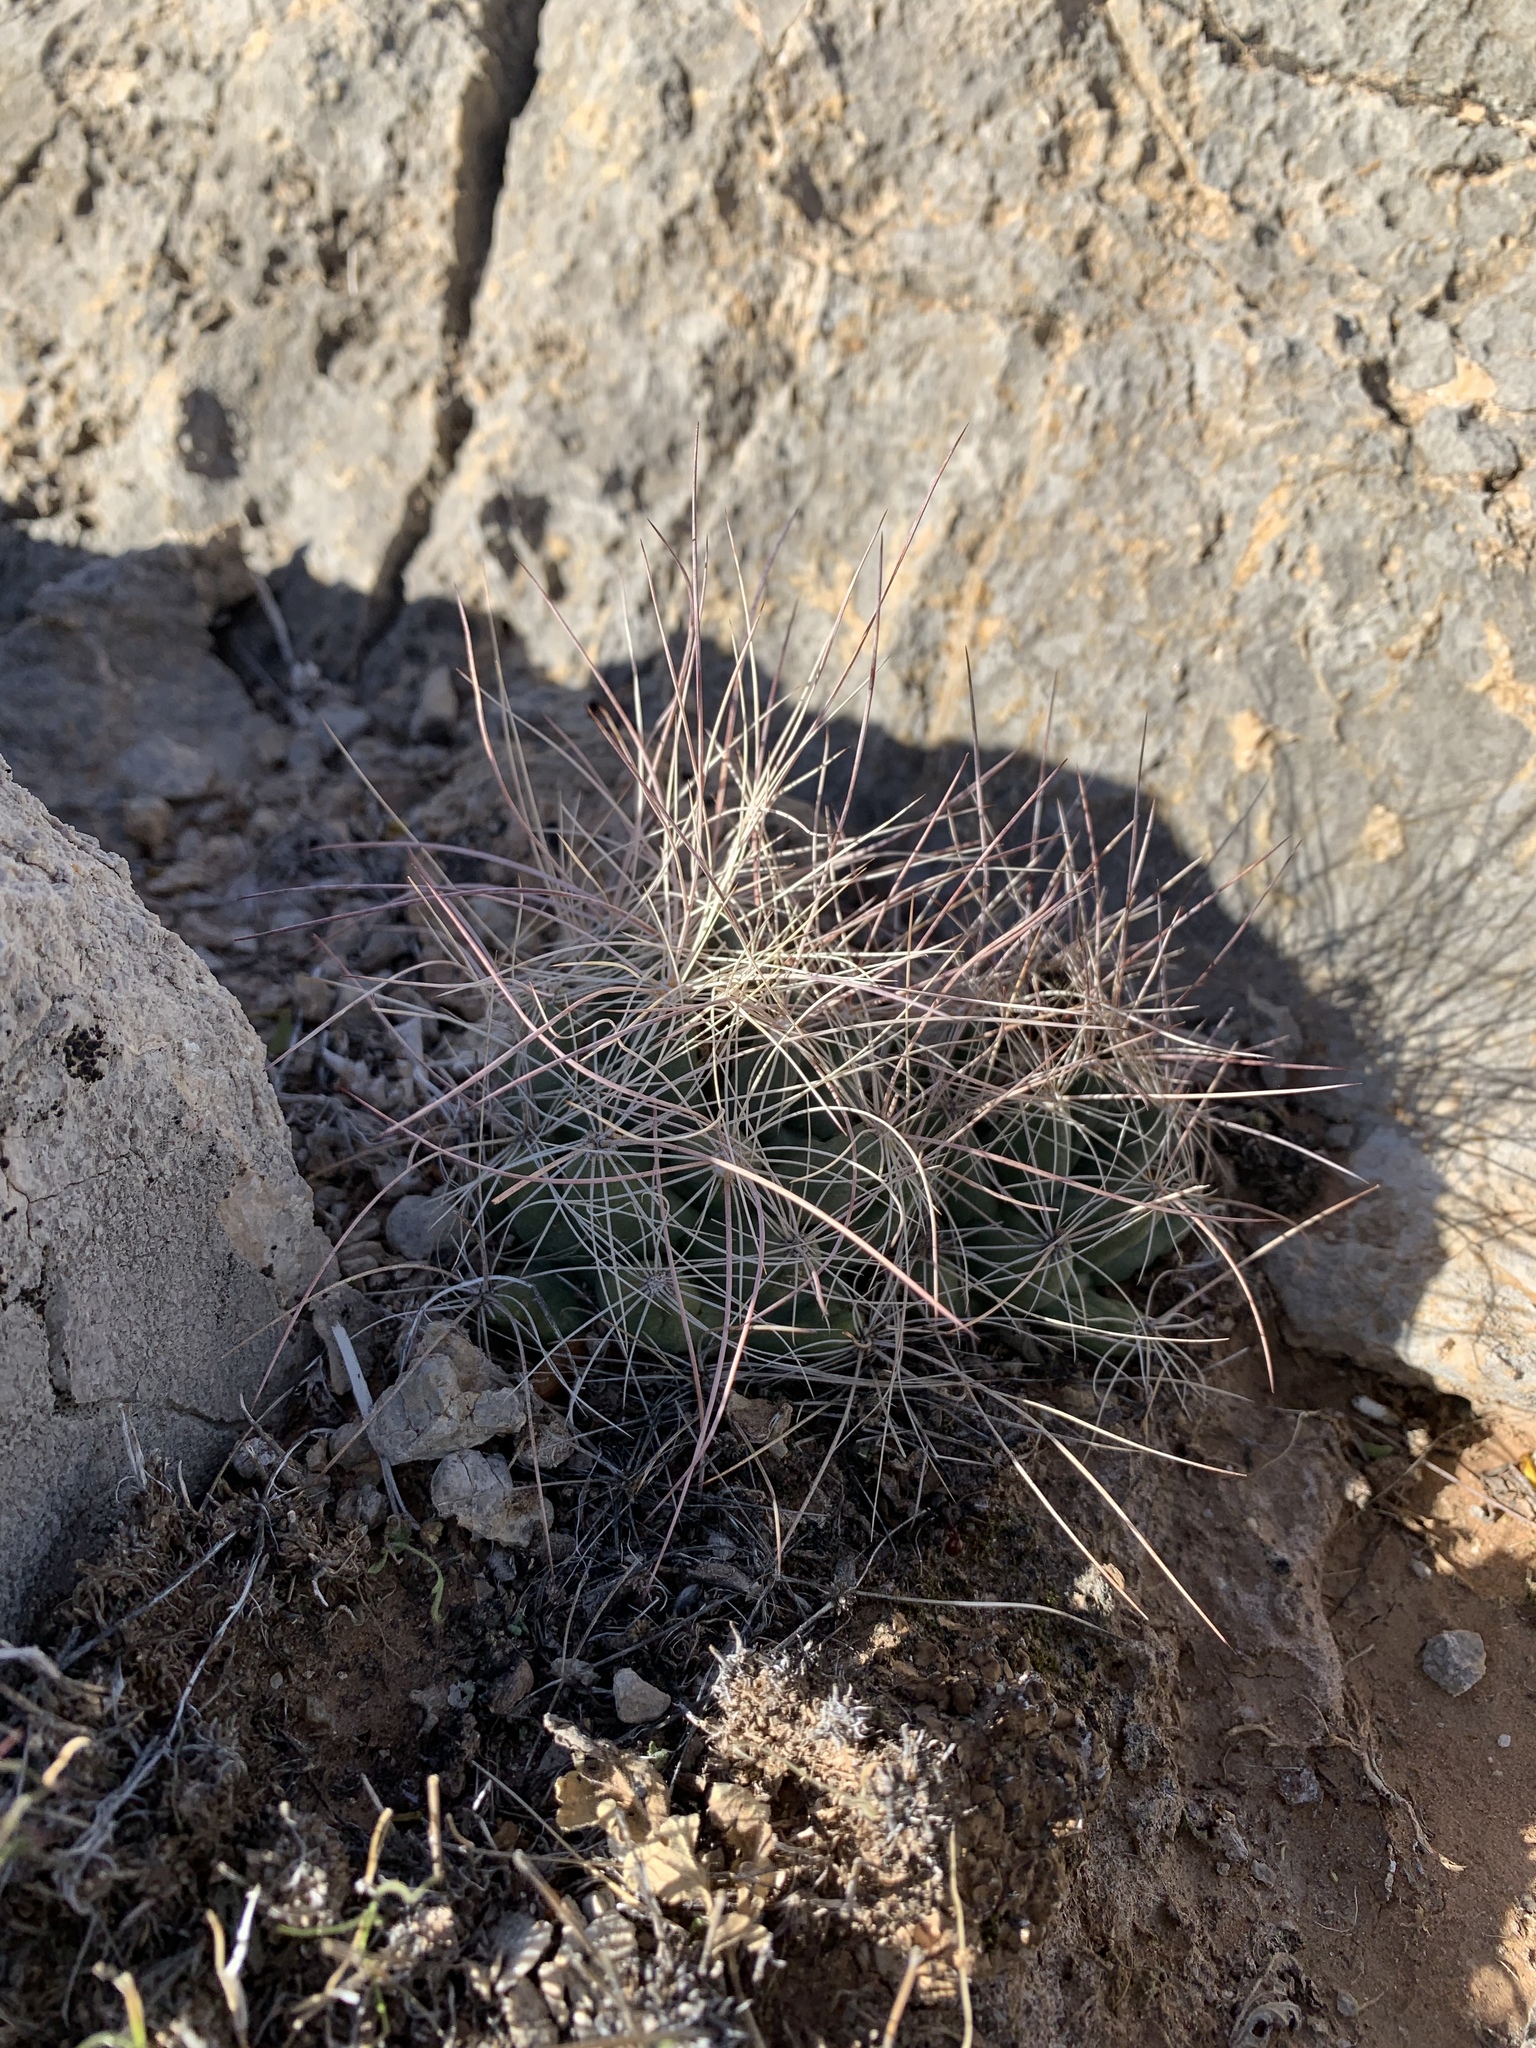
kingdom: Plantae
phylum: Tracheophyta
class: Magnoliopsida
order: Caryophyllales
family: Cactaceae
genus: Coryphantha
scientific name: Coryphantha macromeris
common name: Nipple beehive cactus
